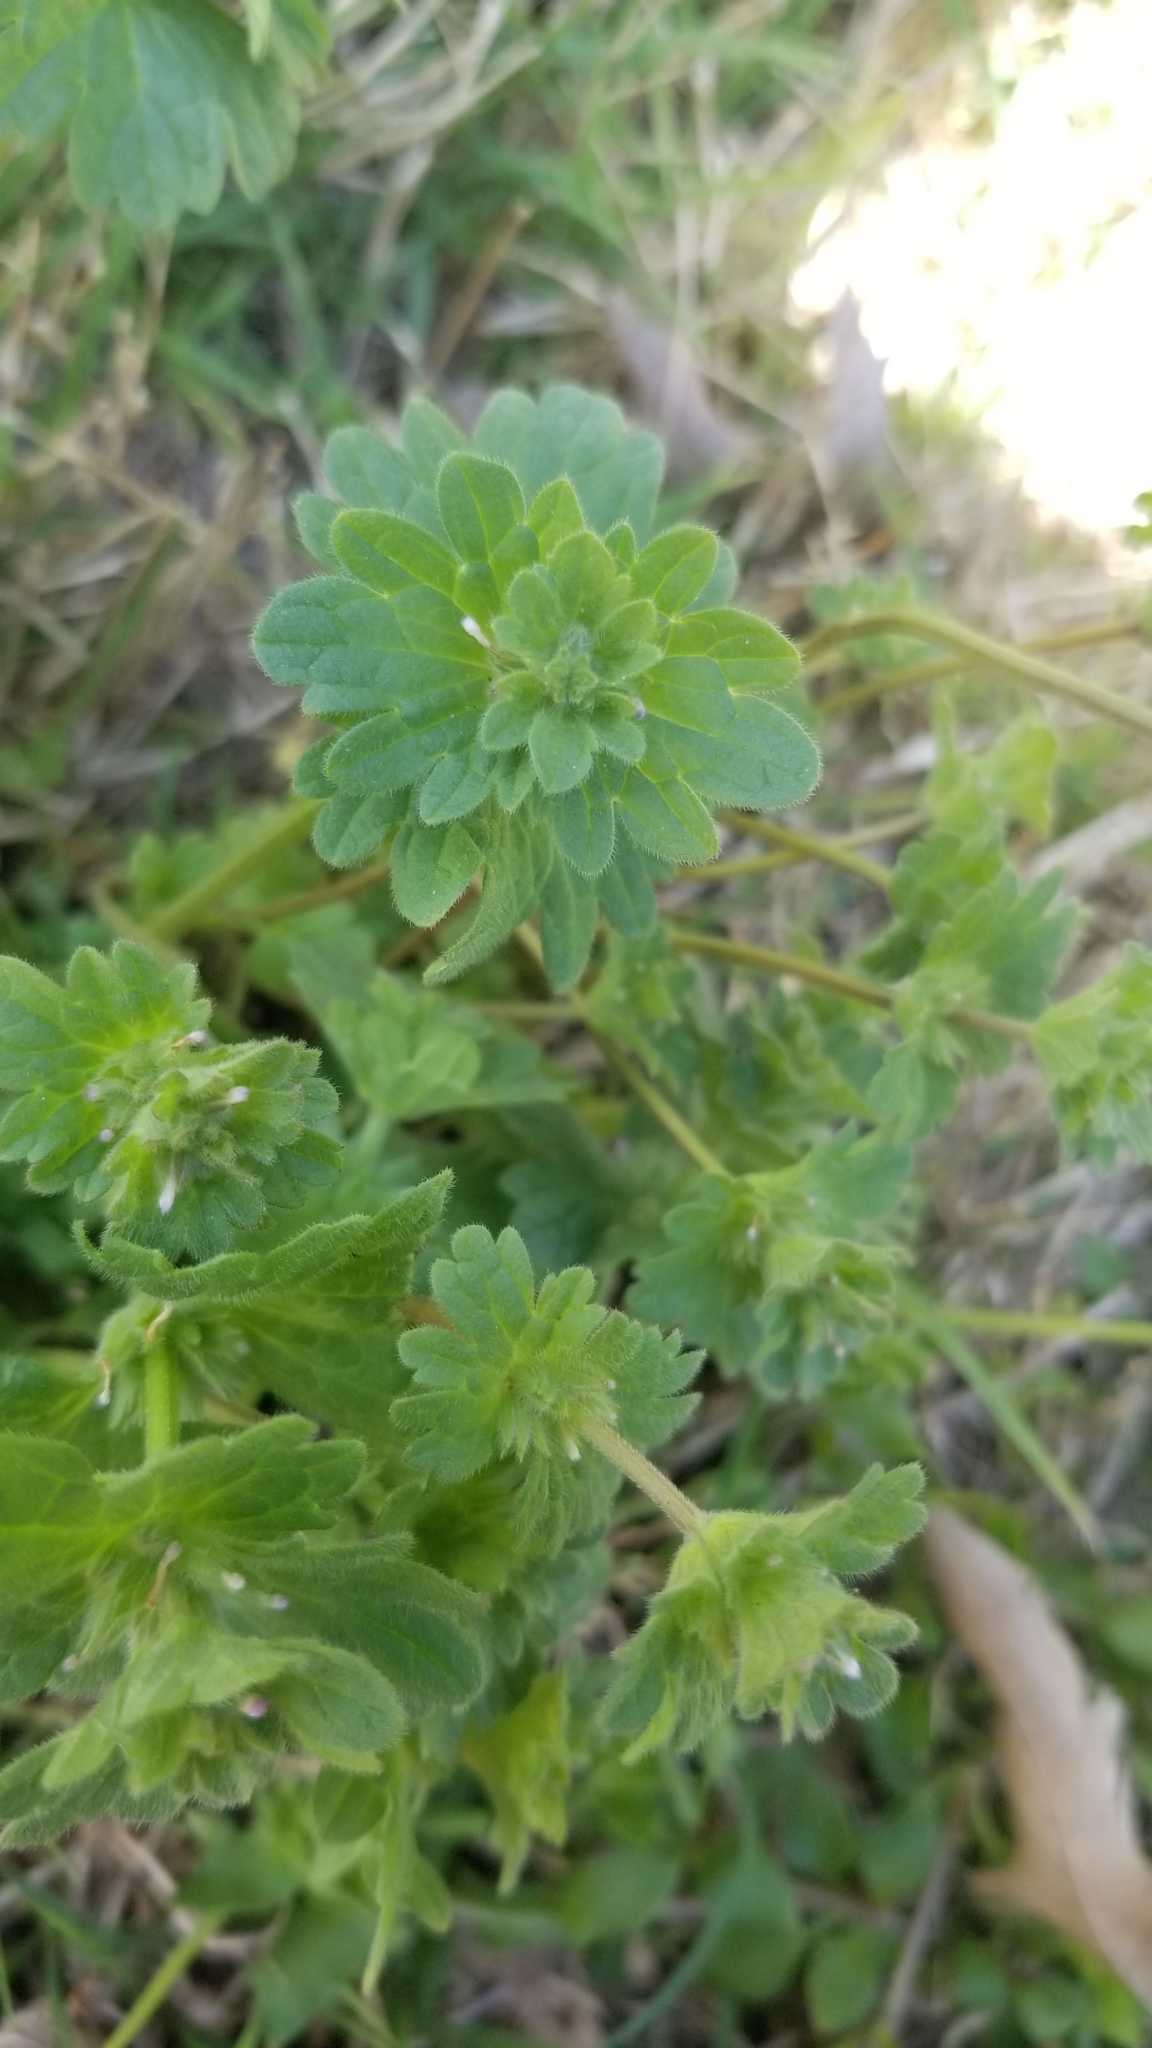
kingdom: Plantae
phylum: Tracheophyta
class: Magnoliopsida
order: Lamiales
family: Lamiaceae
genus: Lamium
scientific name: Lamium amplexicaule
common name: Henbit dead-nettle
